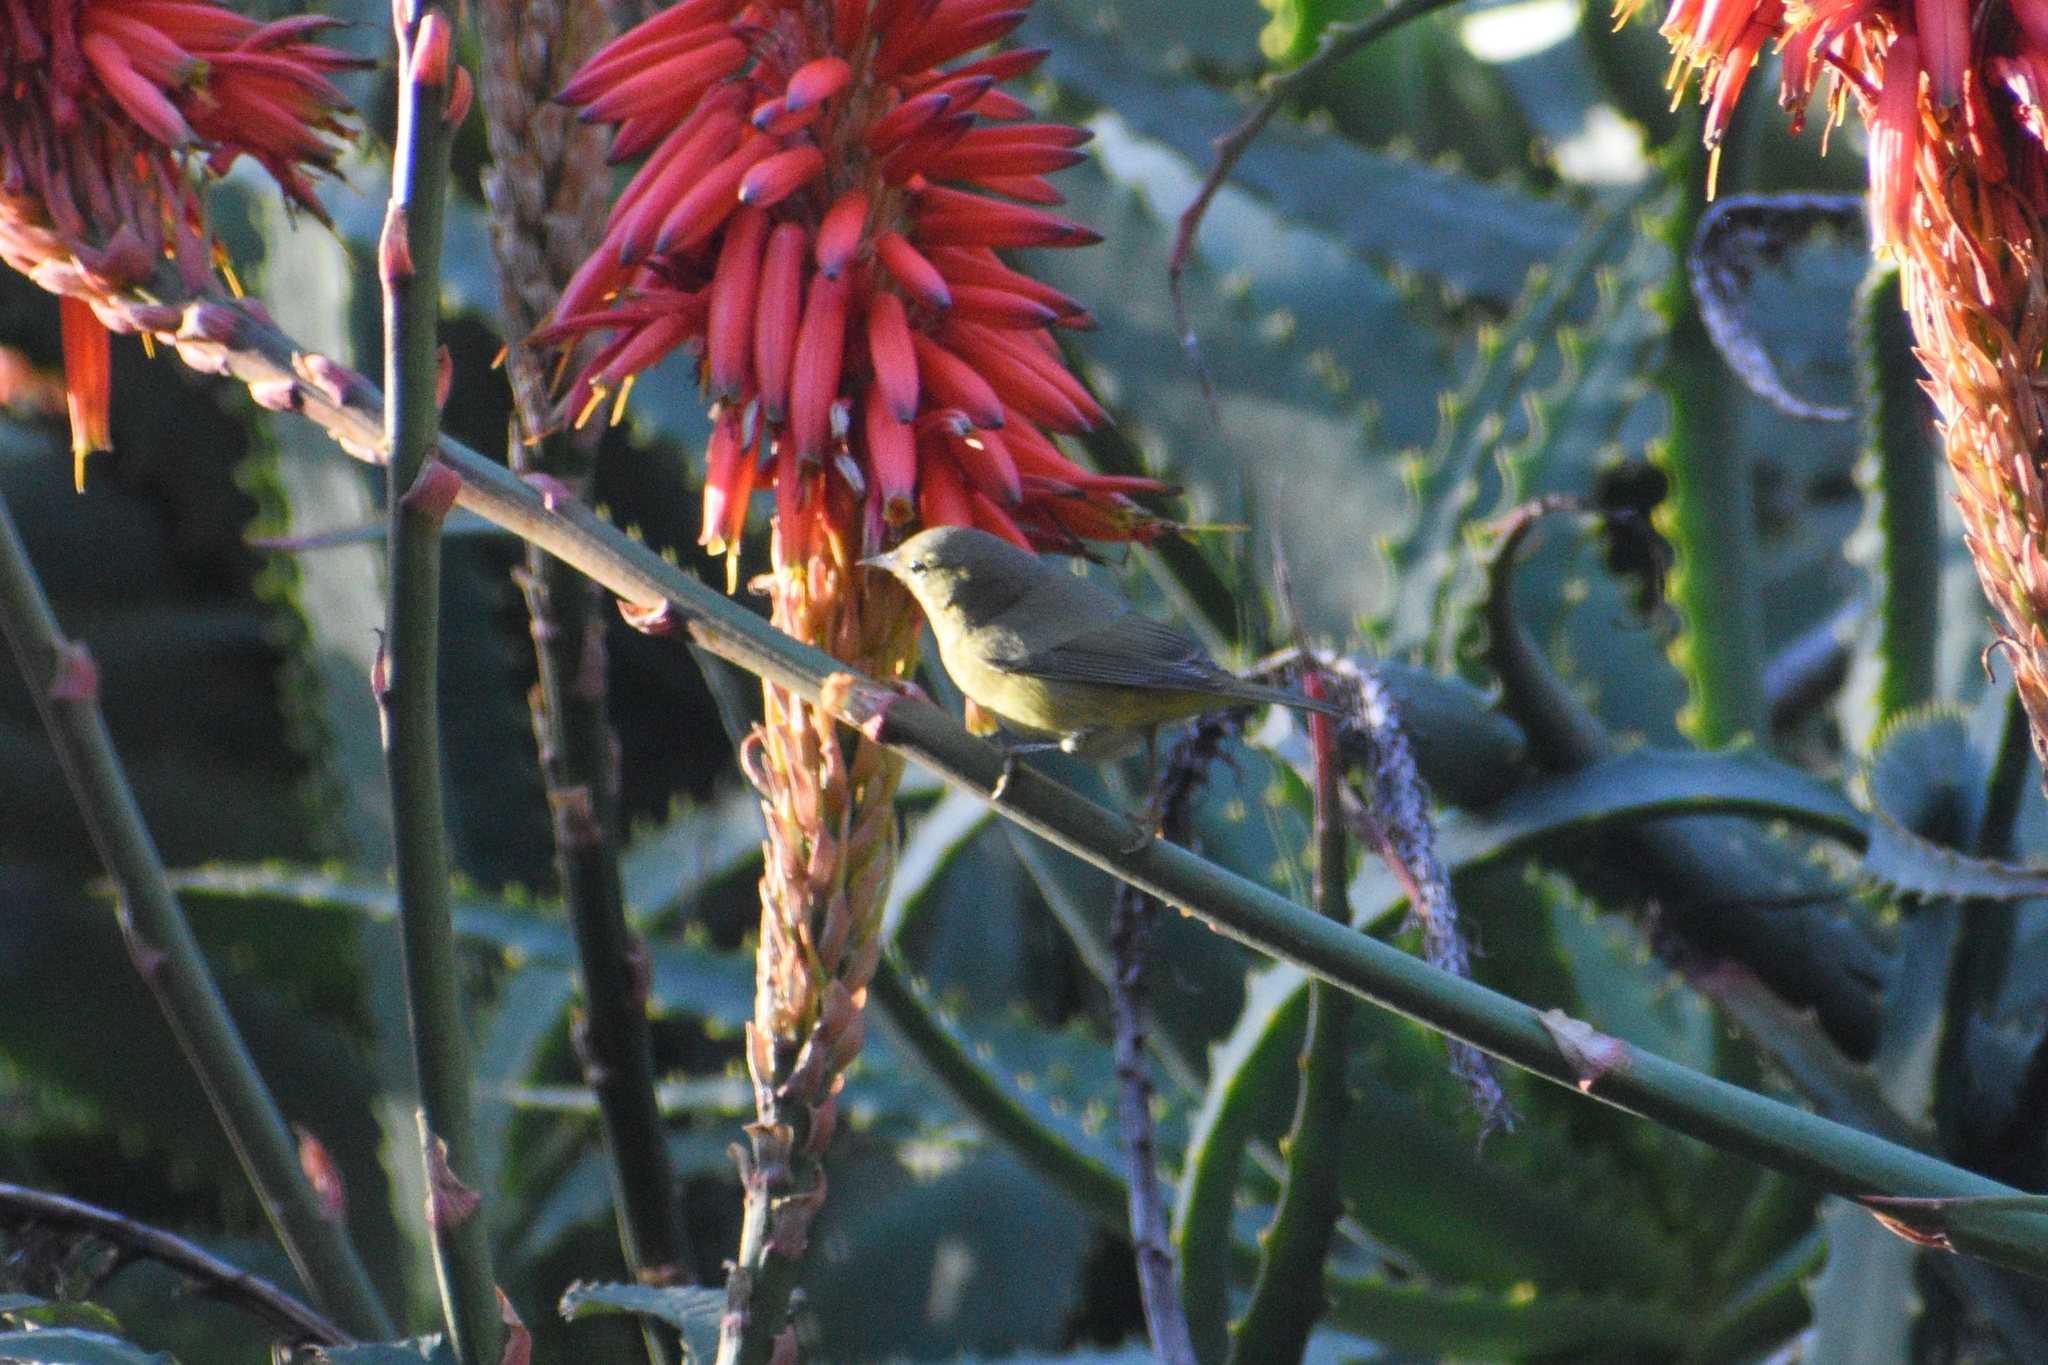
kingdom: Animalia
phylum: Chordata
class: Aves
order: Passeriformes
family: Parulidae
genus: Leiothlypis
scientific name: Leiothlypis celata
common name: Orange-crowned warbler
